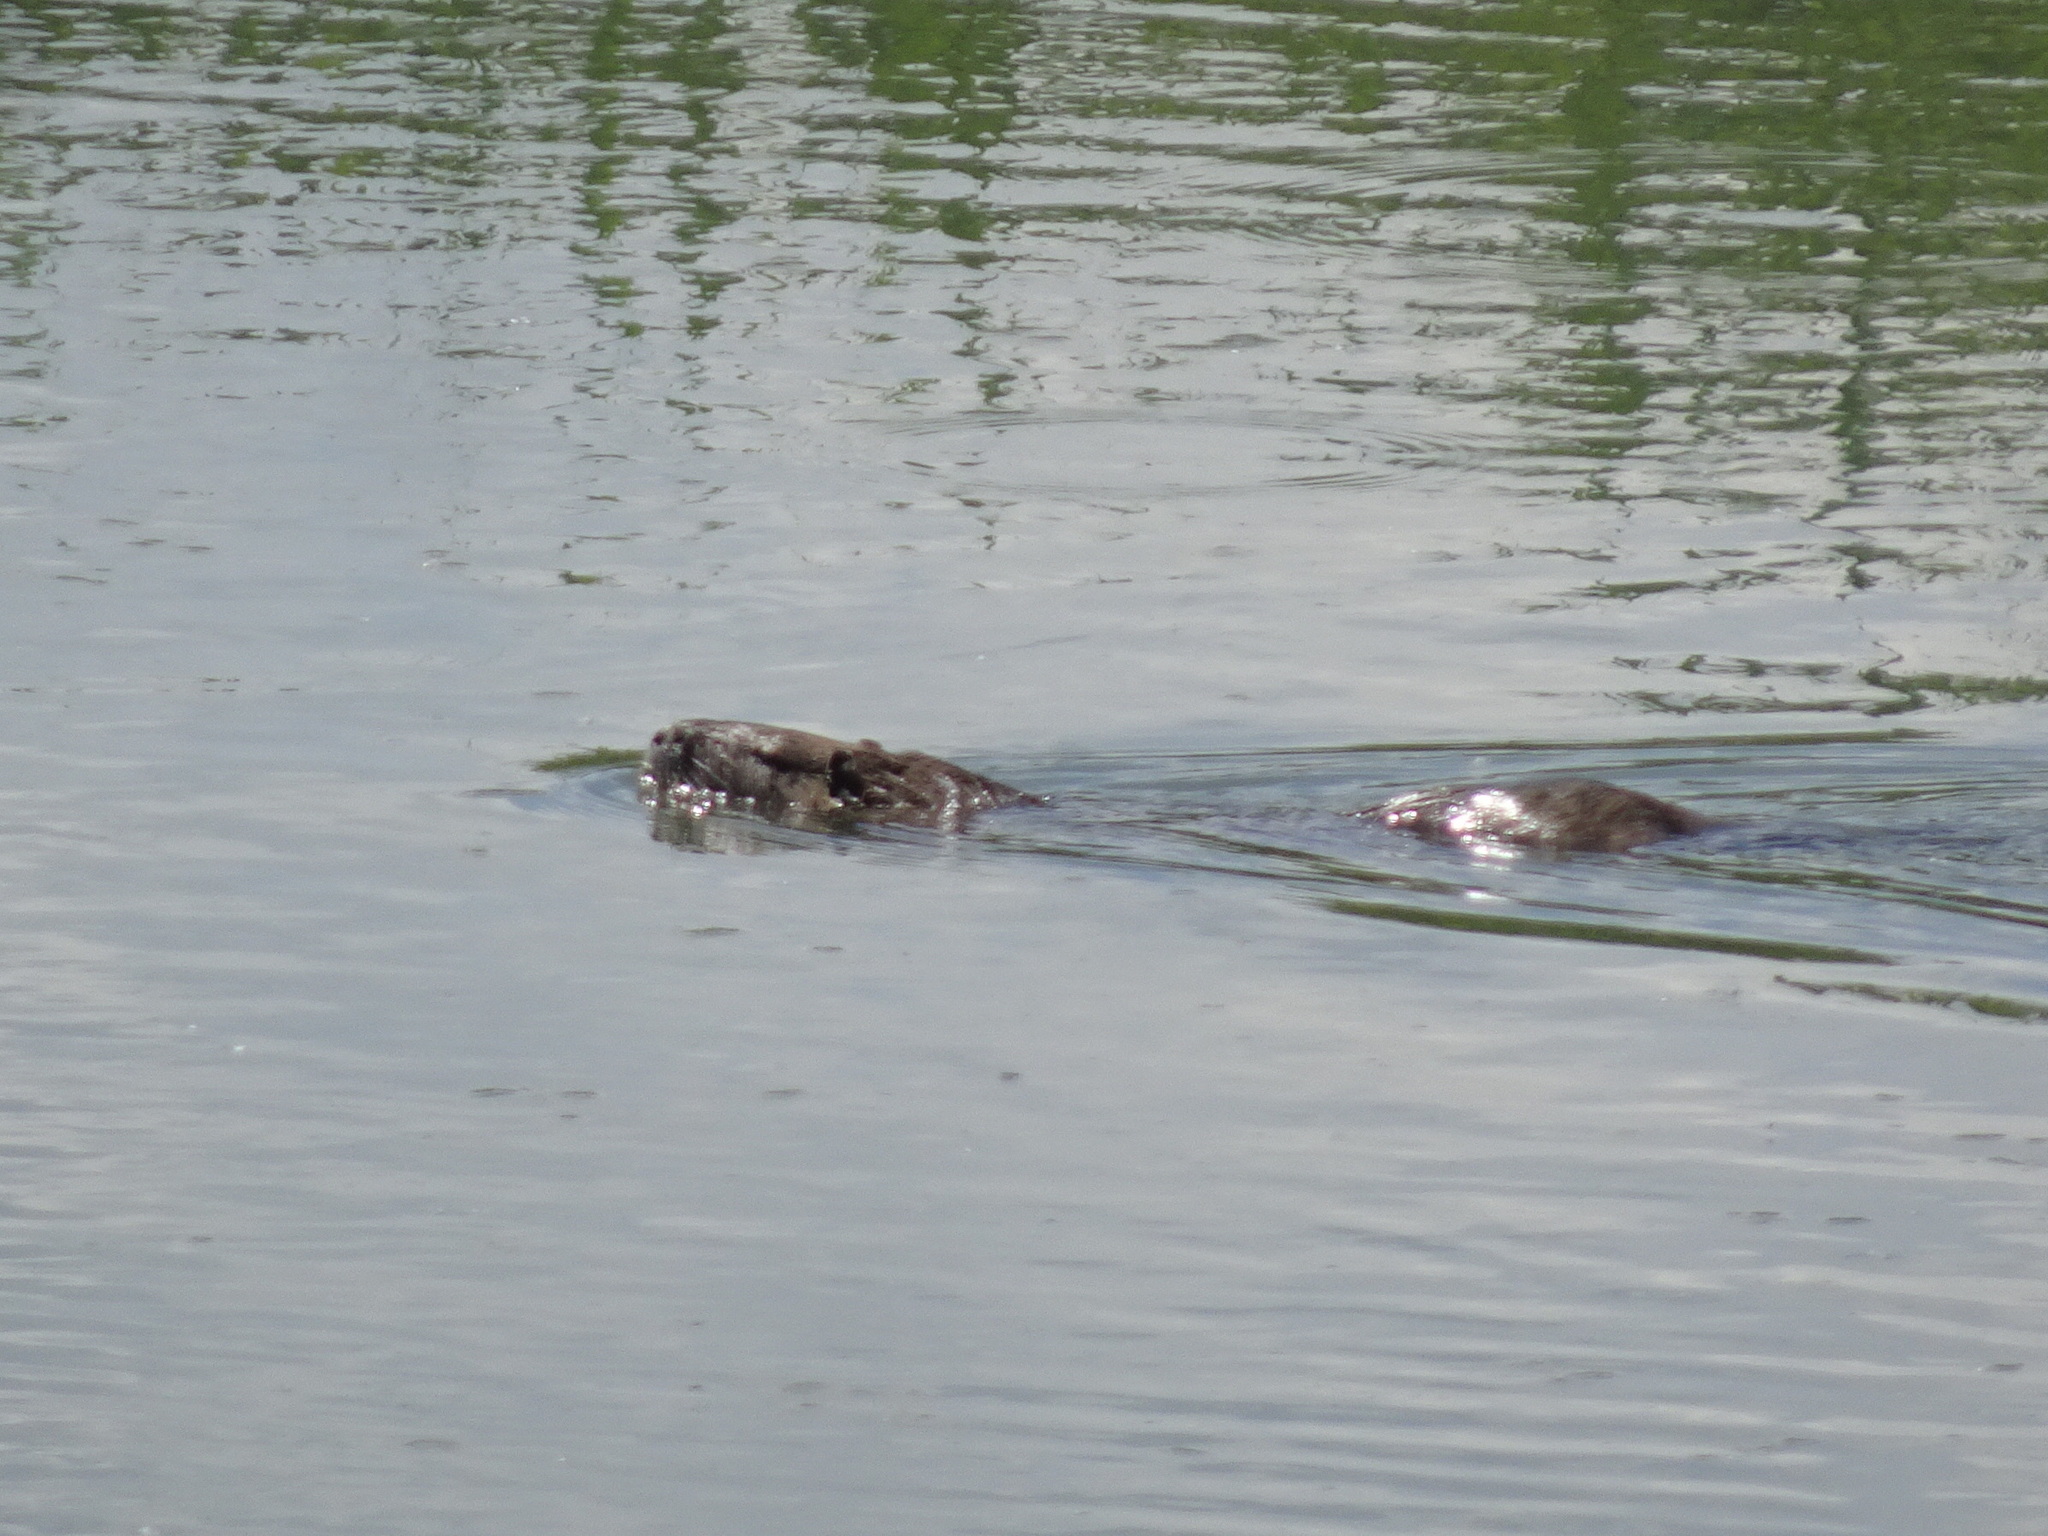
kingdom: Animalia
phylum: Chordata
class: Mammalia
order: Rodentia
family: Myocastoridae
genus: Myocastor
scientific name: Myocastor coypus
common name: Coypu
